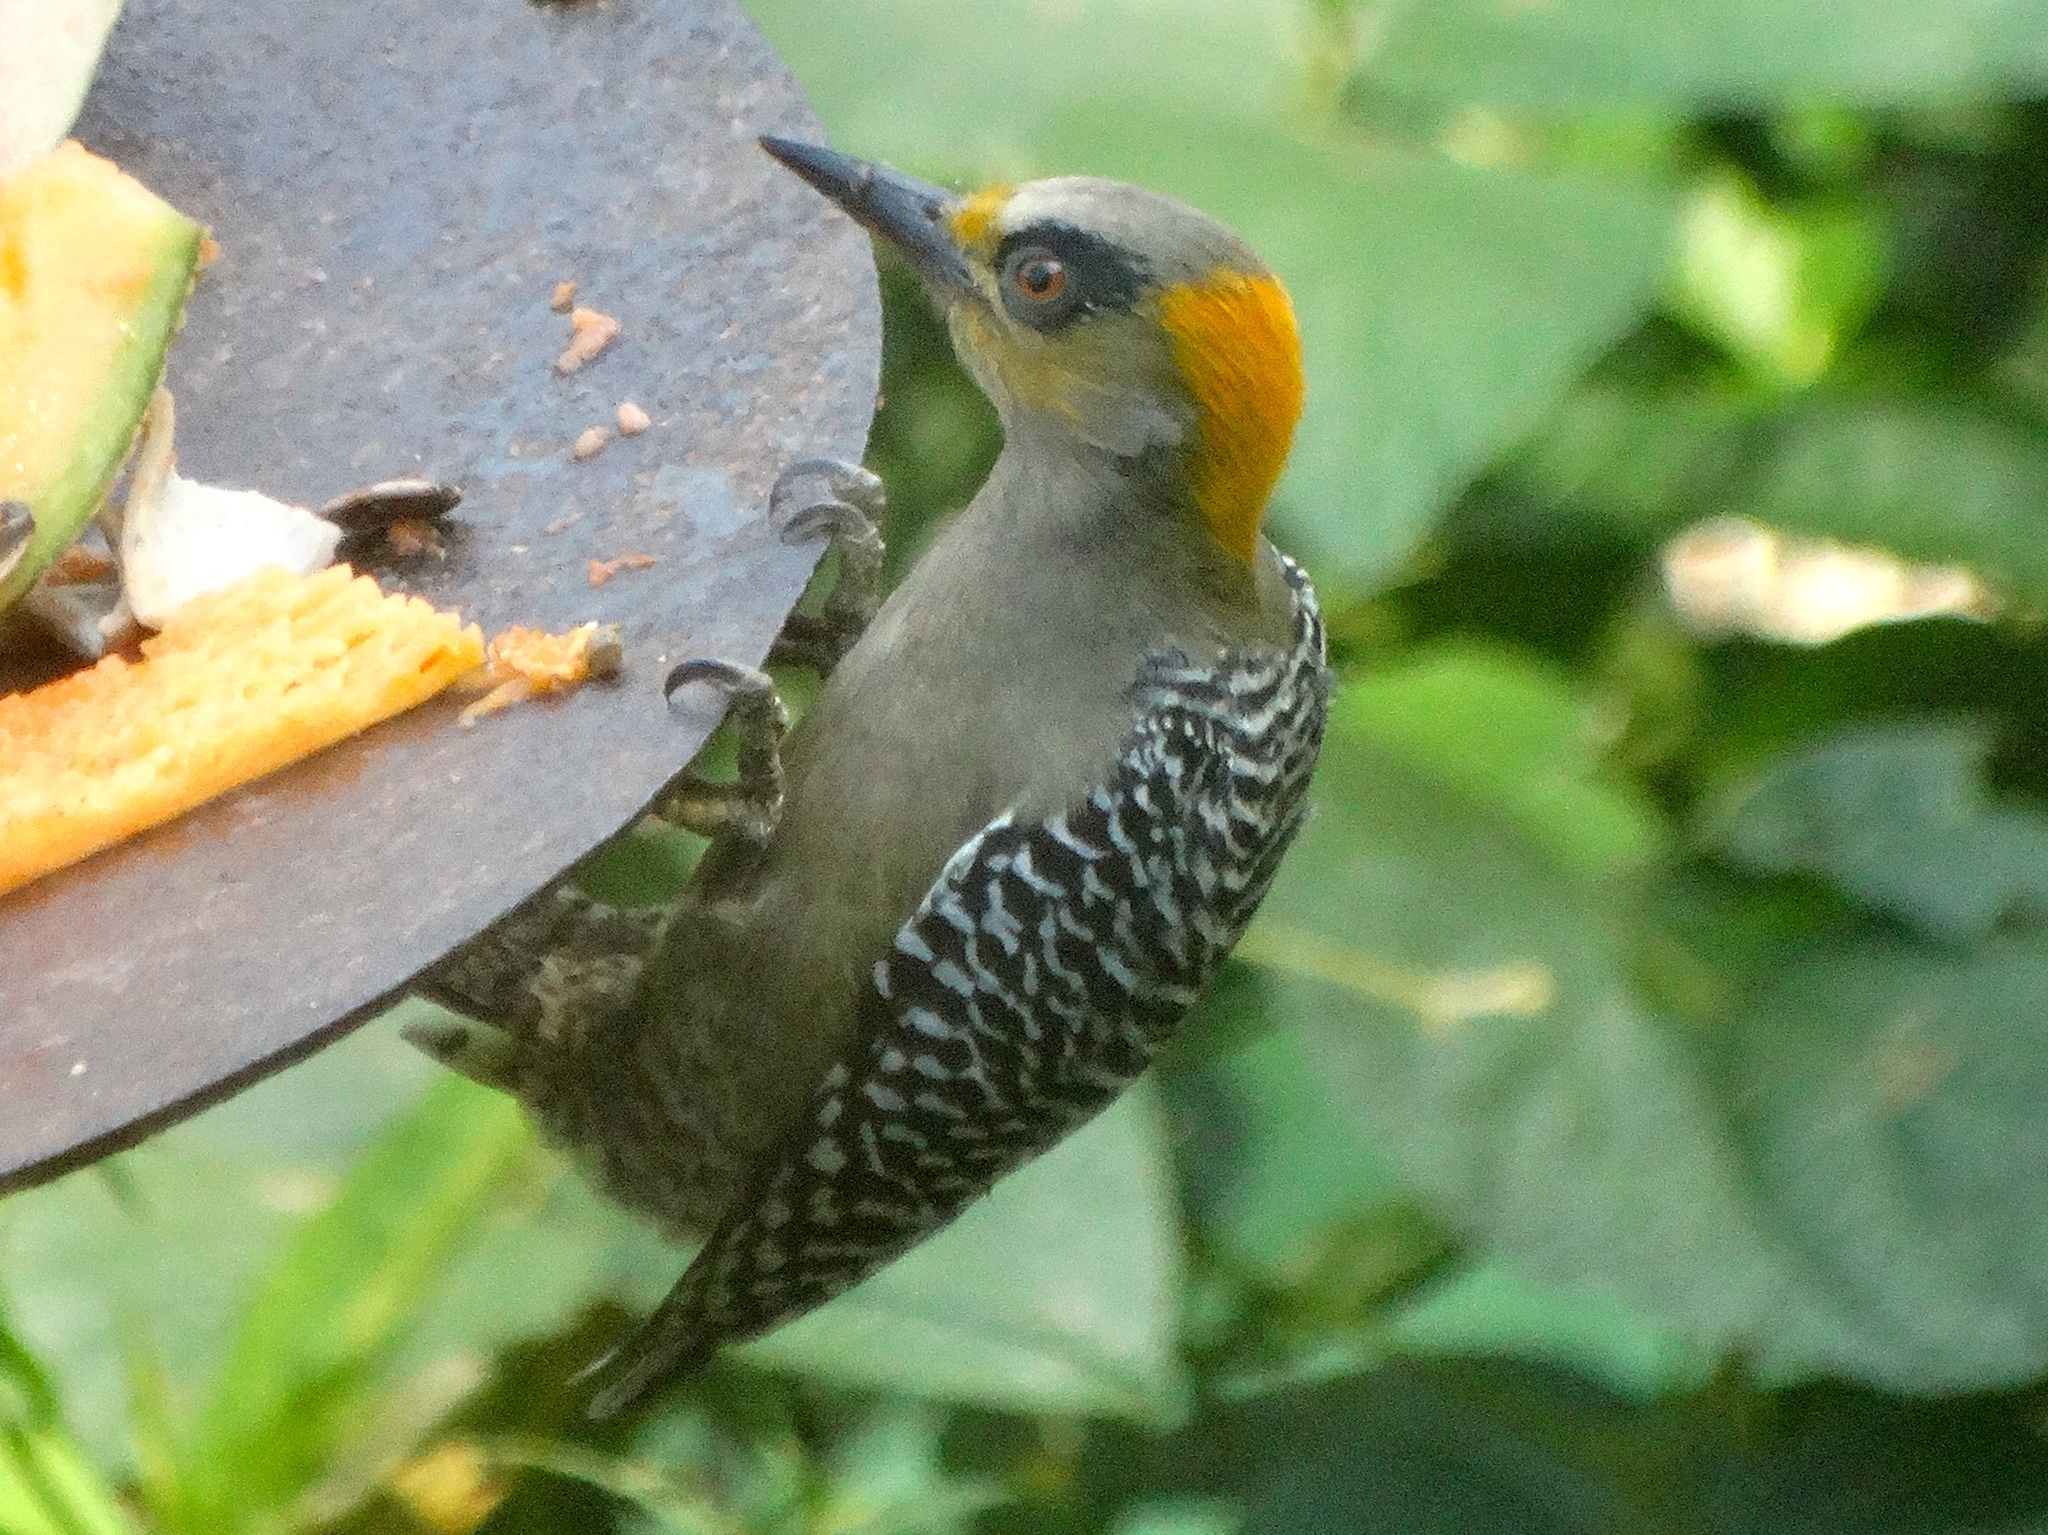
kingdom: Animalia
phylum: Chordata
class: Aves
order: Piciformes
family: Picidae
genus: Melanerpes
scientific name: Melanerpes chrysogenys
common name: Golden-cheeked woodpecker
